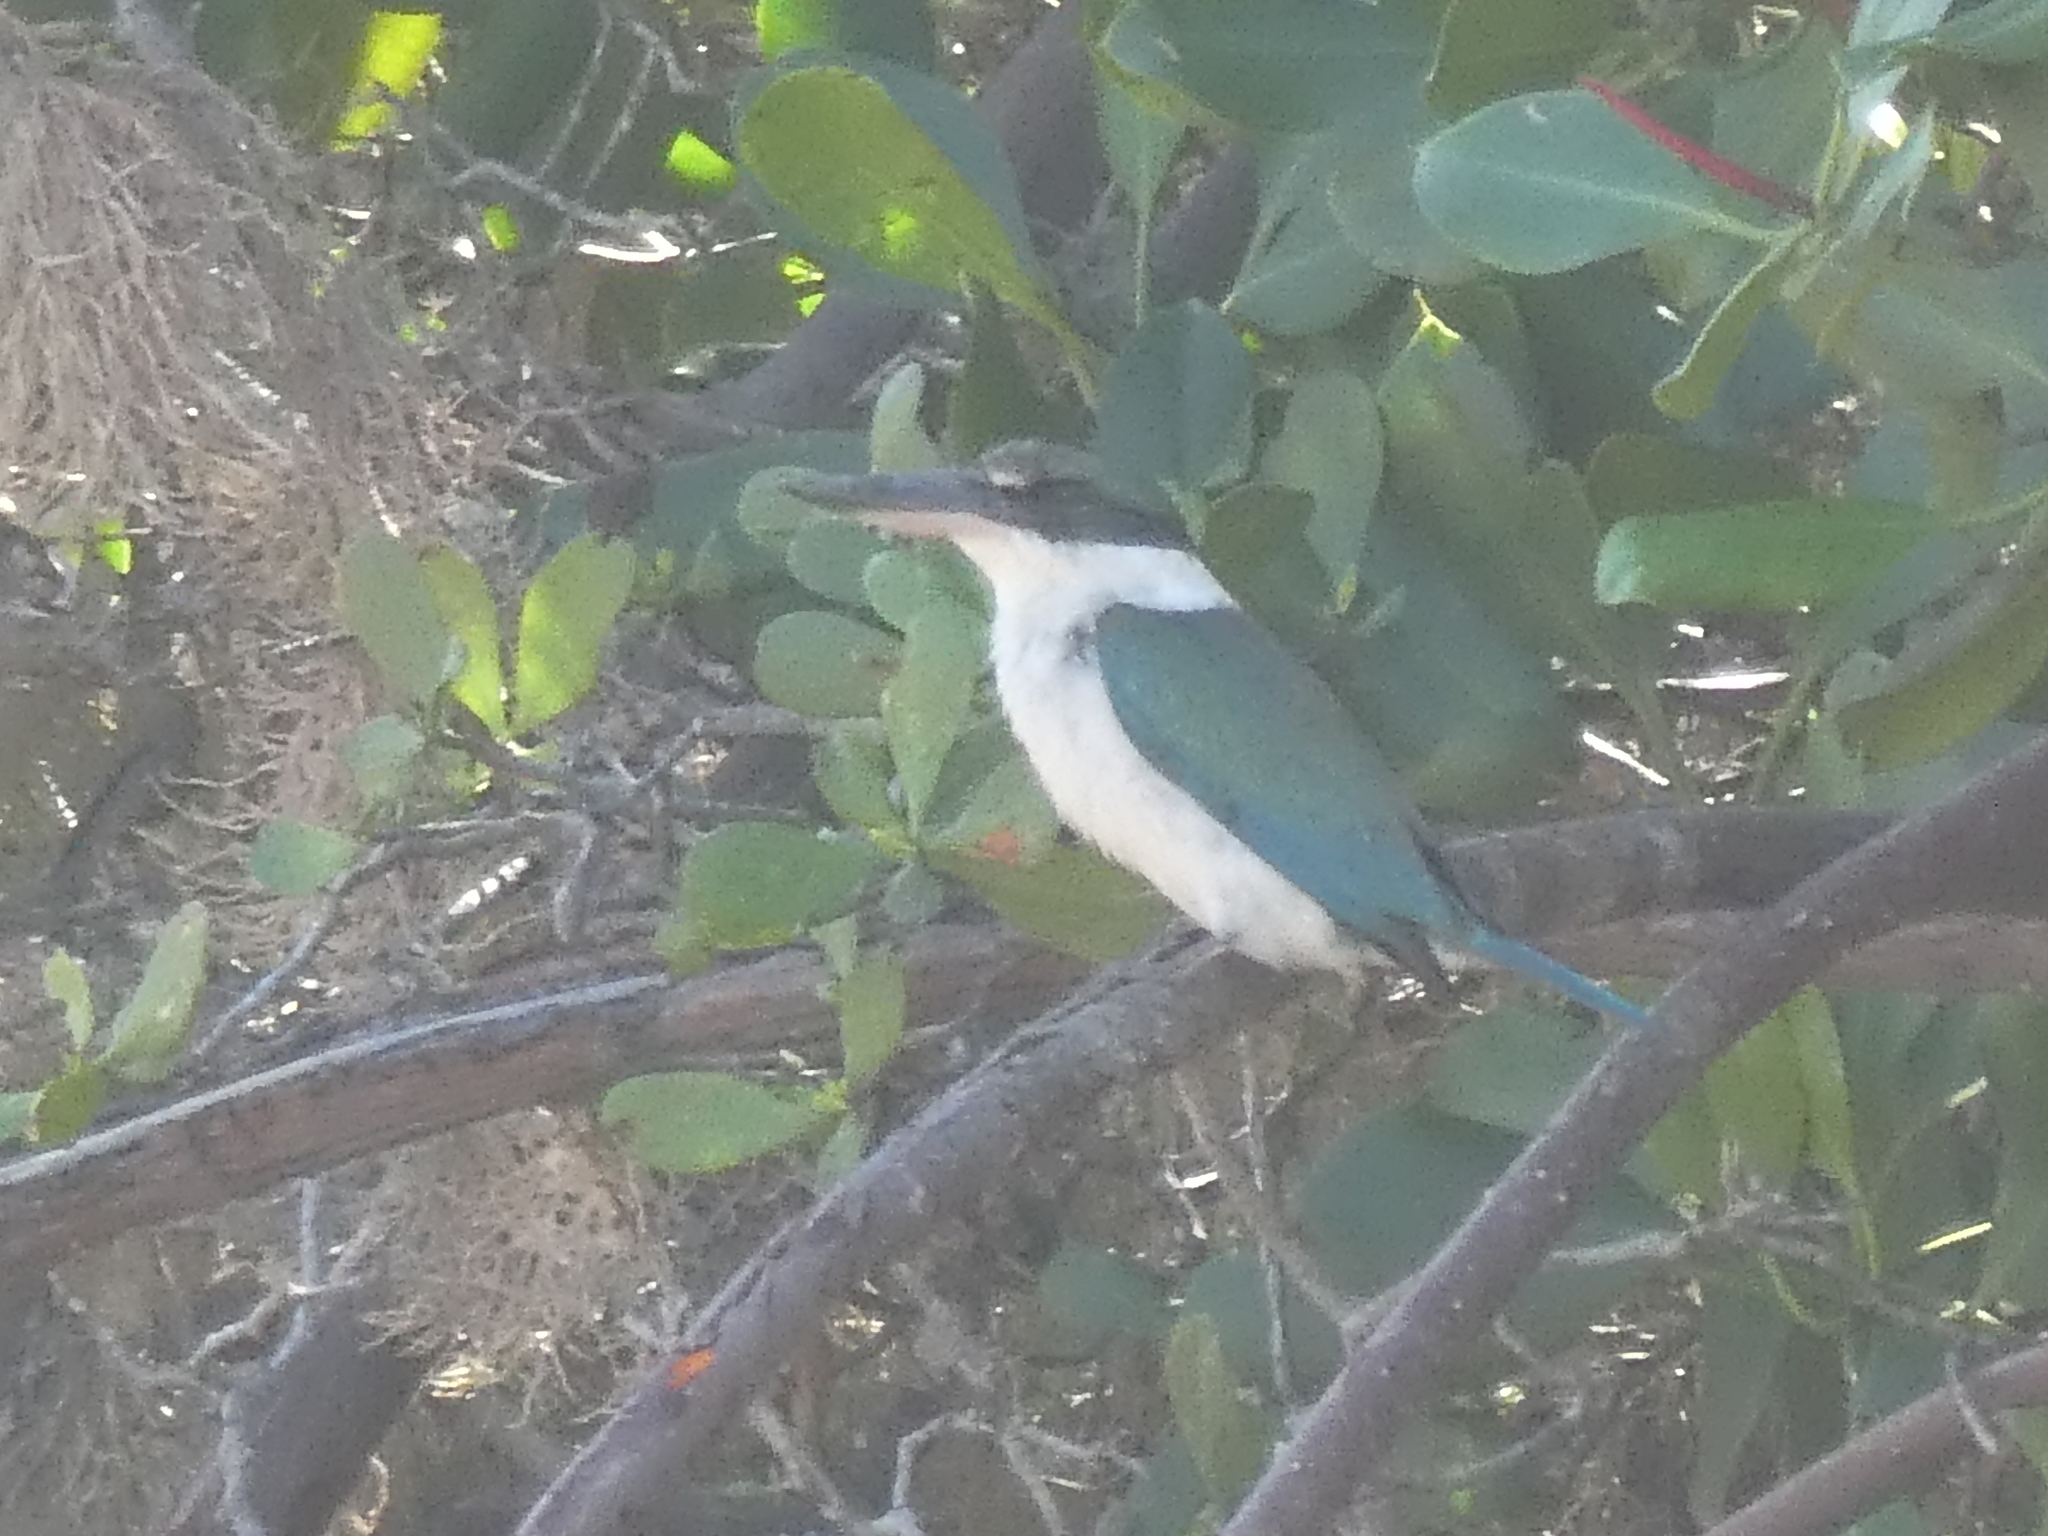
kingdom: Animalia
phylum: Chordata
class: Aves
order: Coraciiformes
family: Alcedinidae
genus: Todiramphus
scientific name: Todiramphus chloris
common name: Collared kingfisher
